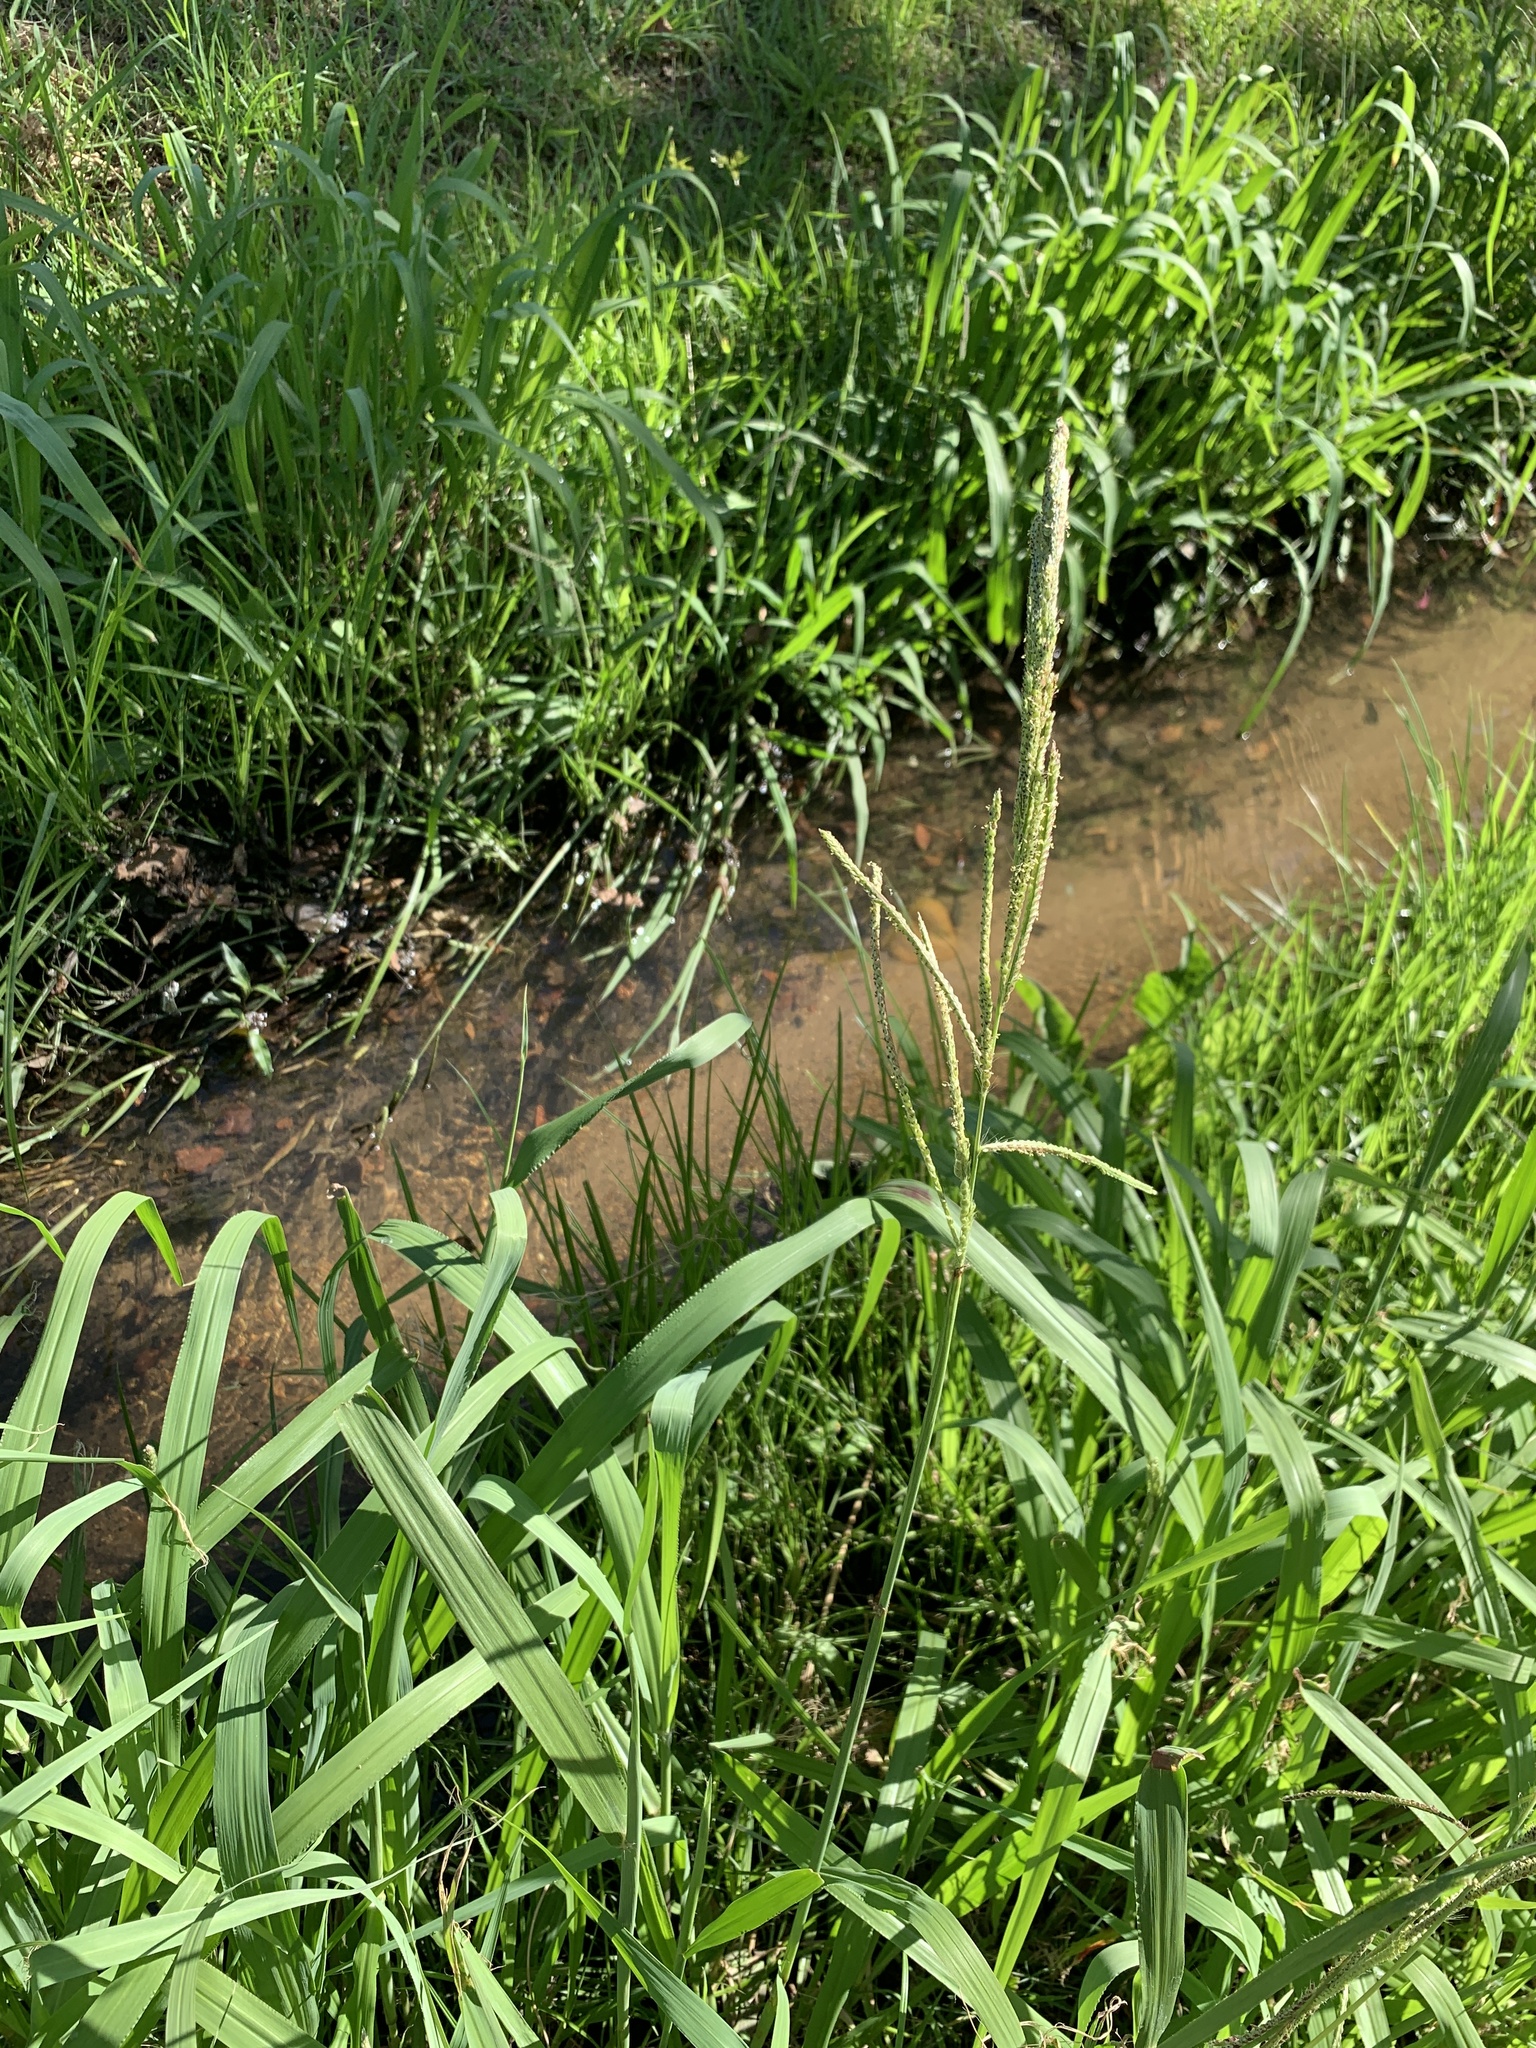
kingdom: Plantae
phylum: Tracheophyta
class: Liliopsida
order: Poales
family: Poaceae
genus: Paspalum
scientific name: Paspalum urvillei
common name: Vasey's grass
